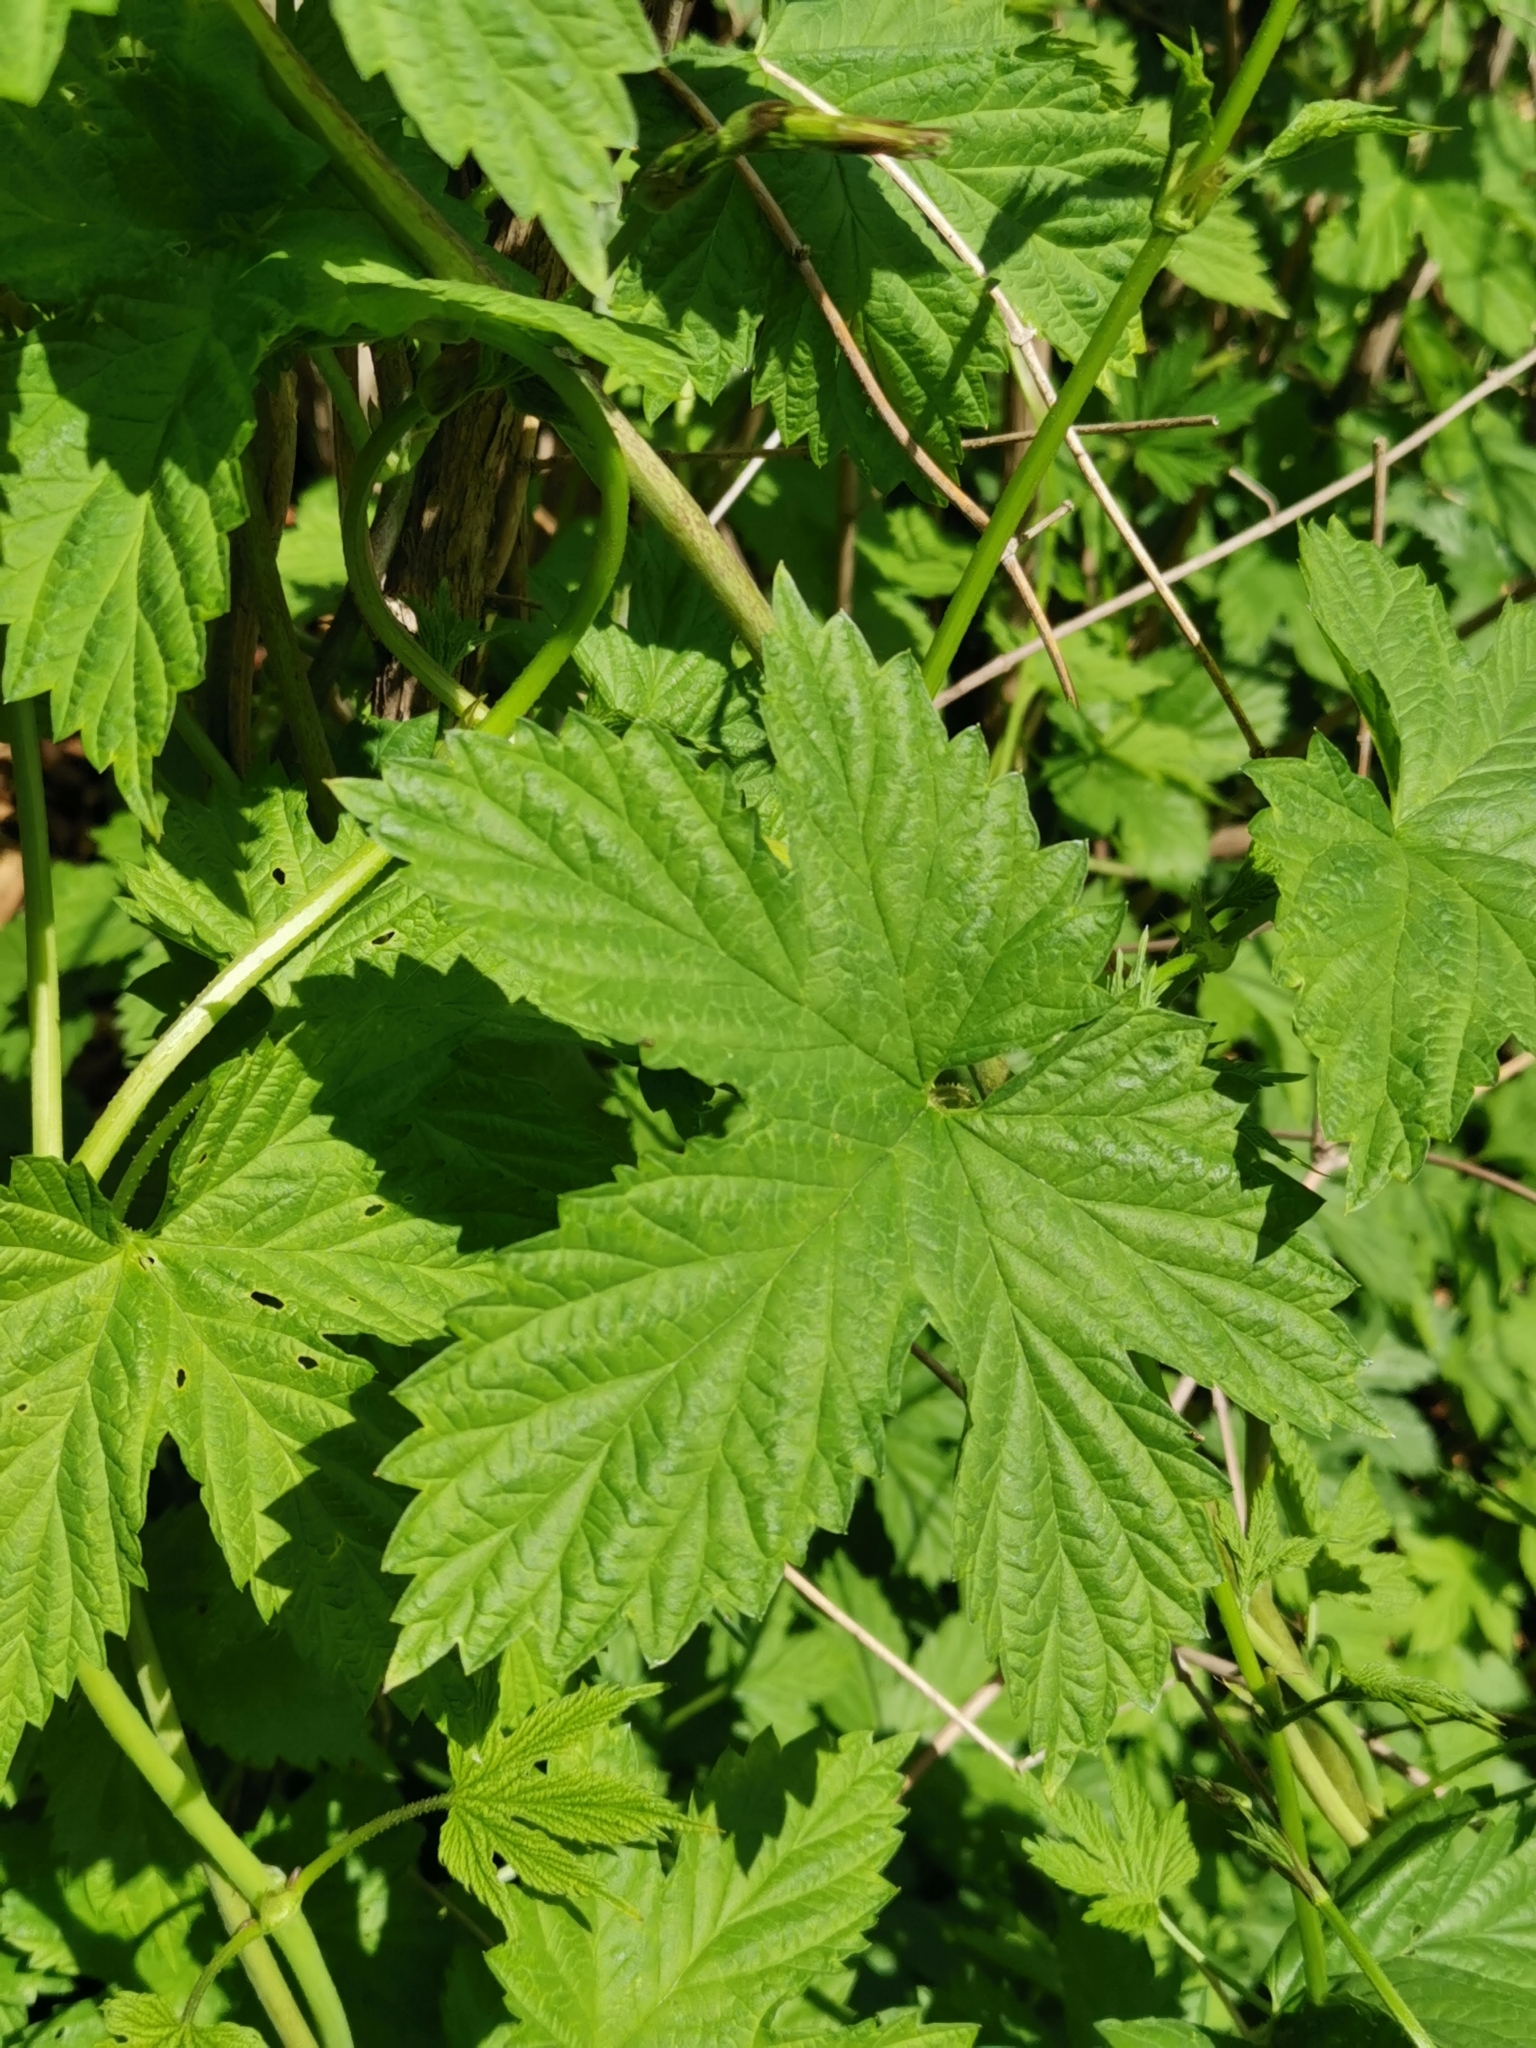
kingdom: Plantae
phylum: Tracheophyta
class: Magnoliopsida
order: Rosales
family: Cannabaceae
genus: Humulus
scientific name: Humulus lupulus
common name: Hop
